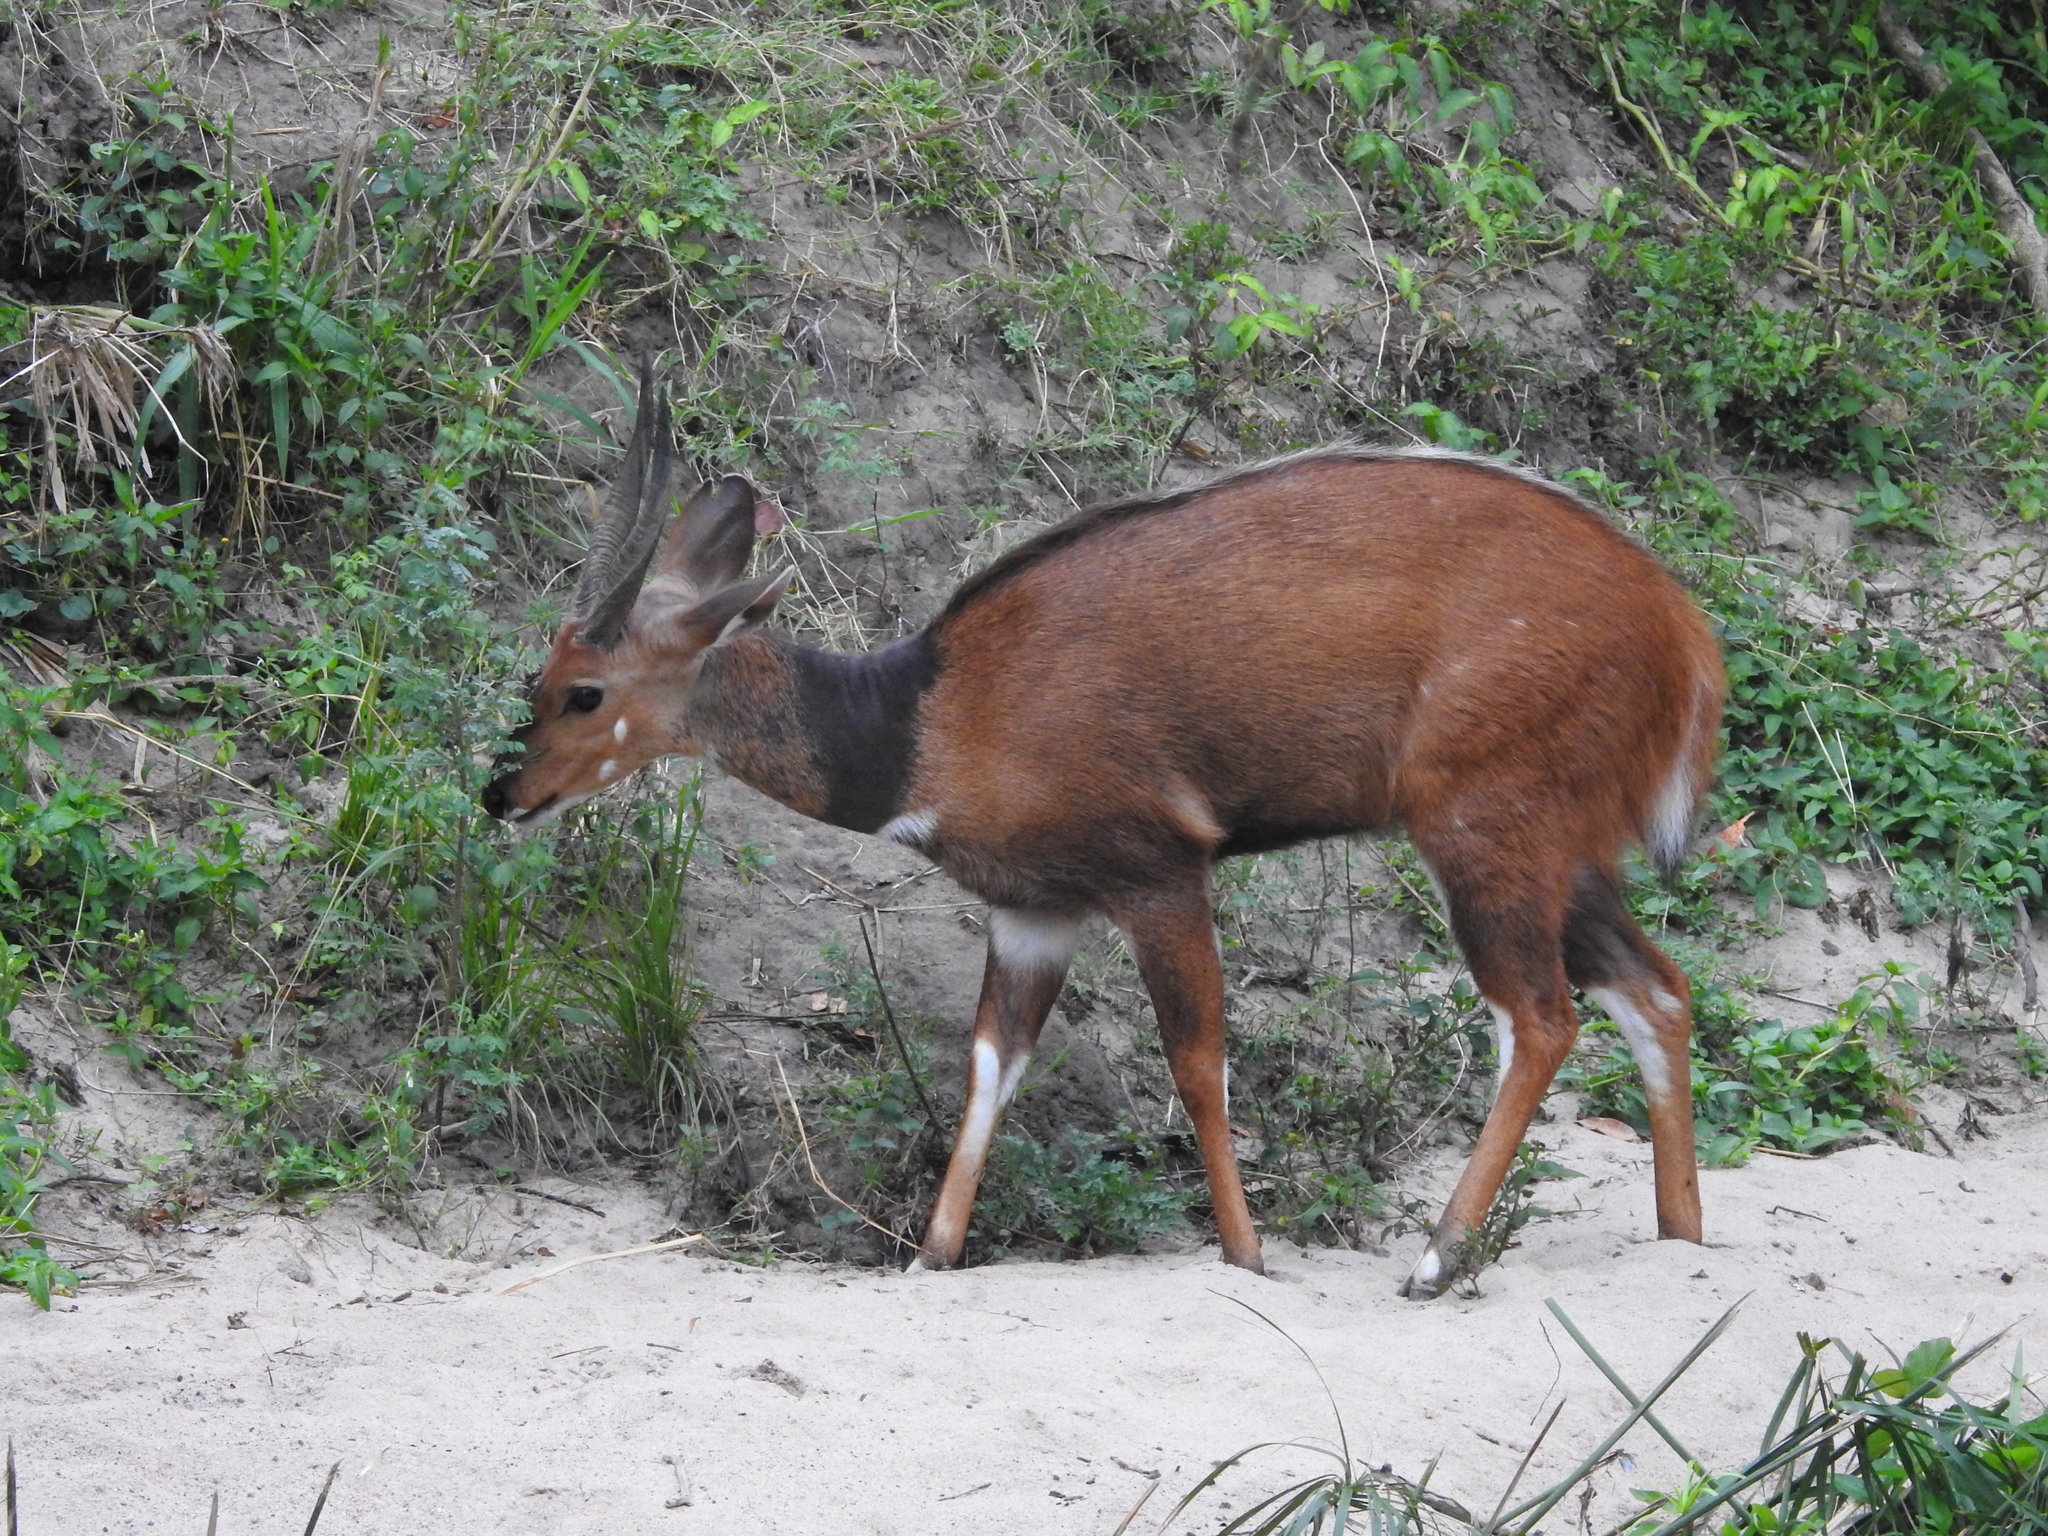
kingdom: Animalia
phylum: Chordata
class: Mammalia
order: Artiodactyla
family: Bovidae
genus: Tragelaphus
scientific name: Tragelaphus scriptus
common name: Bushbuck
